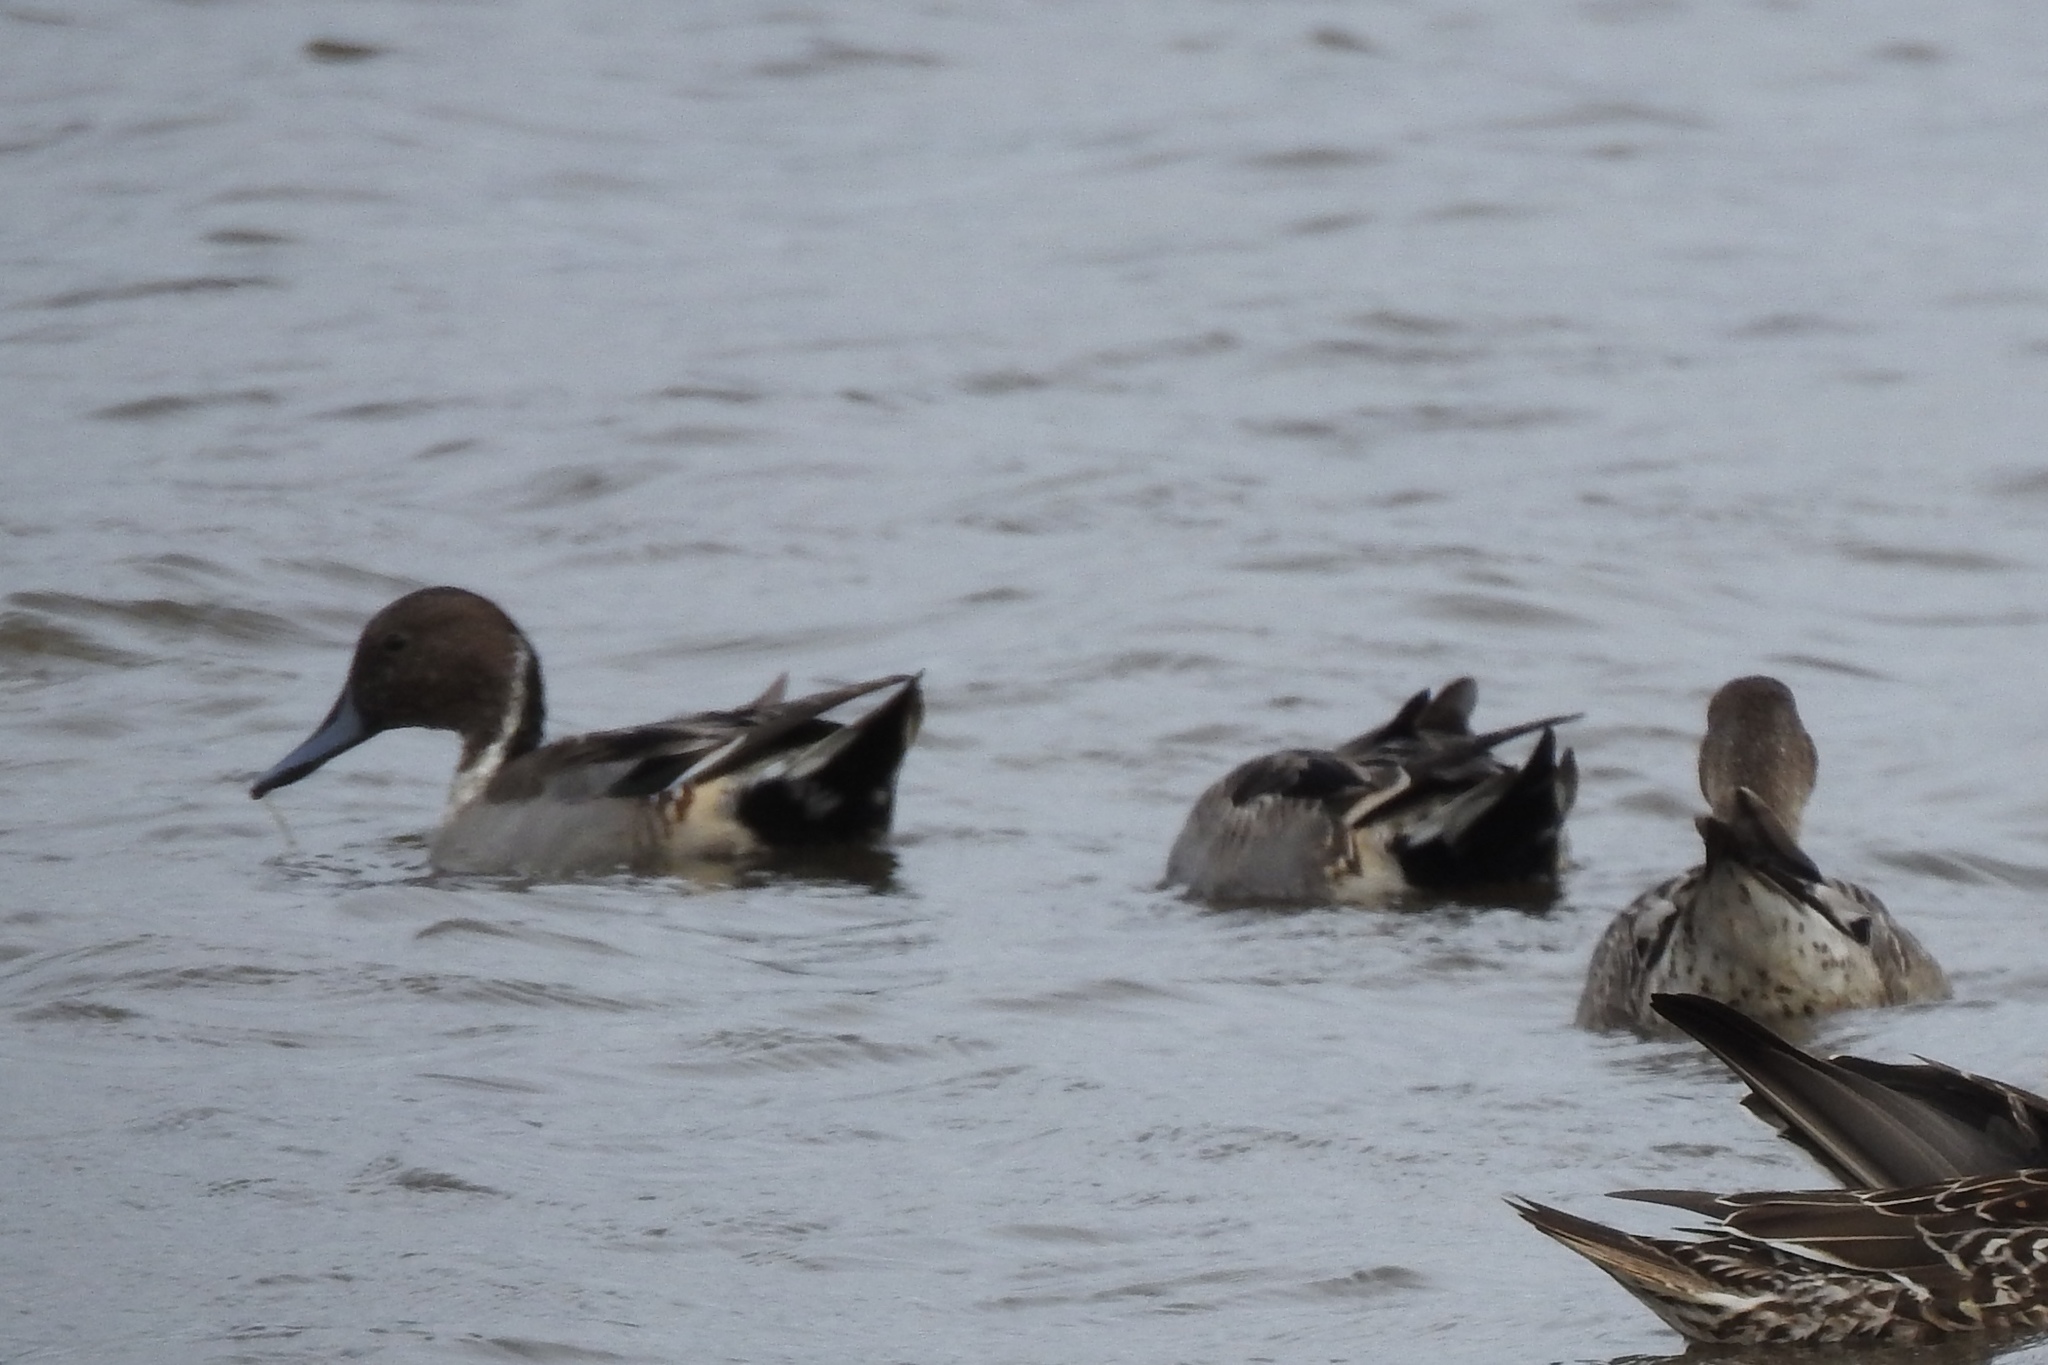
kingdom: Animalia
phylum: Chordata
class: Aves
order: Anseriformes
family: Anatidae
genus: Anas
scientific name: Anas acuta
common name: Northern pintail
